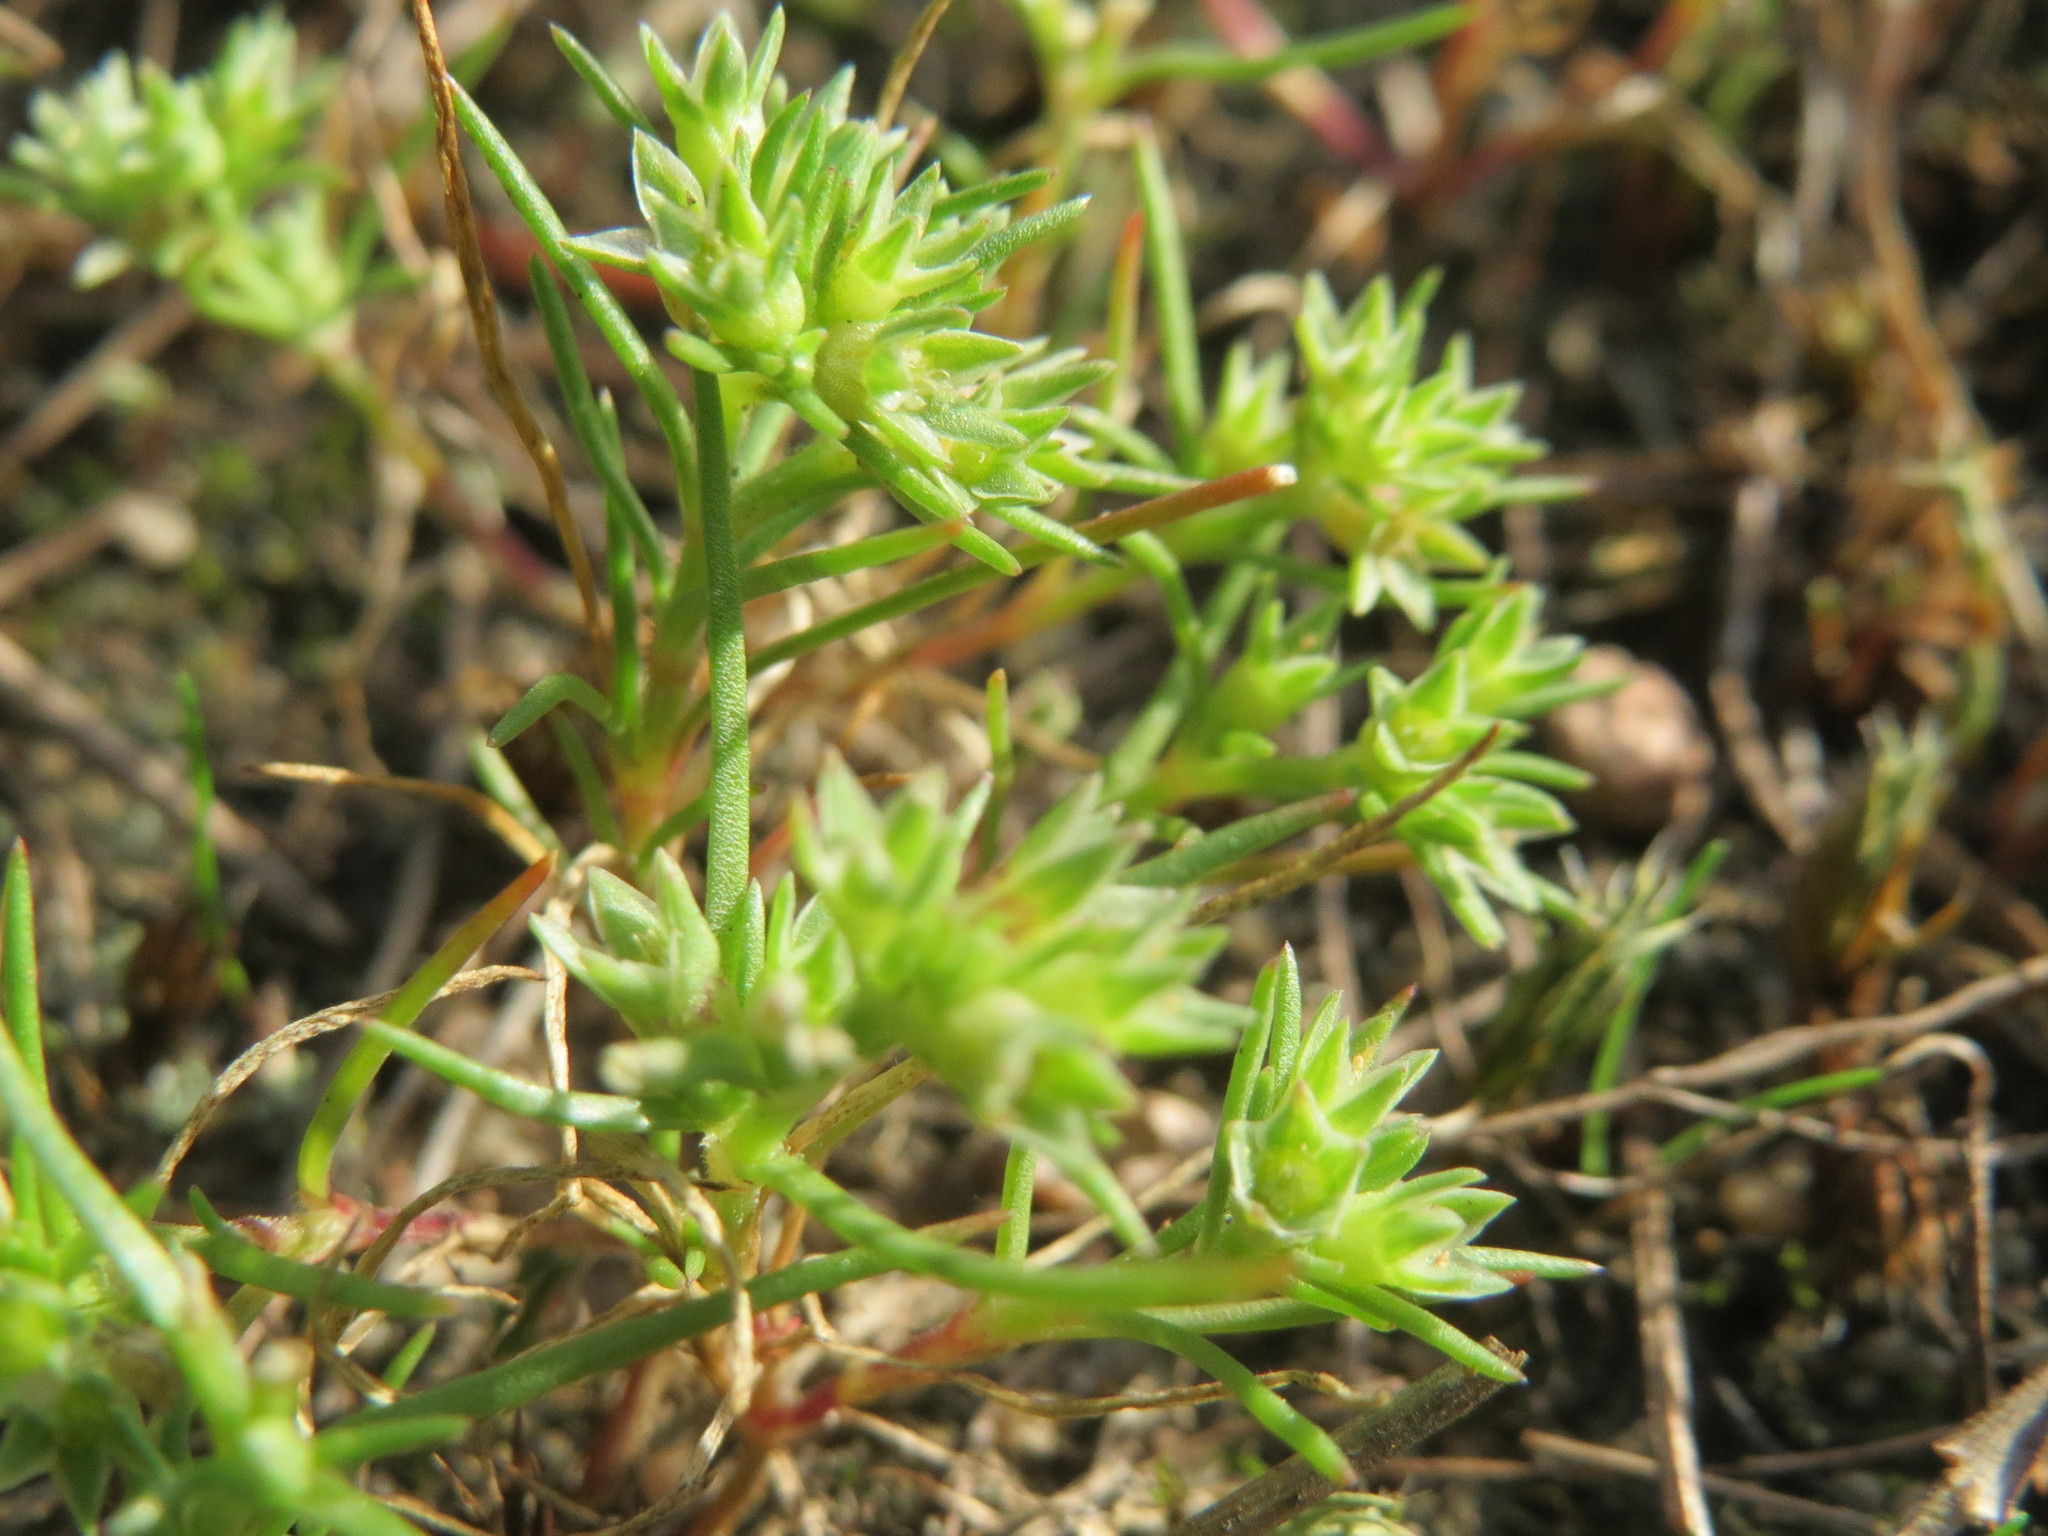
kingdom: Plantae
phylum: Tracheophyta
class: Magnoliopsida
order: Caryophyllales
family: Caryophyllaceae
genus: Scleranthus
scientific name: Scleranthus annuus
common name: Annual knawel
